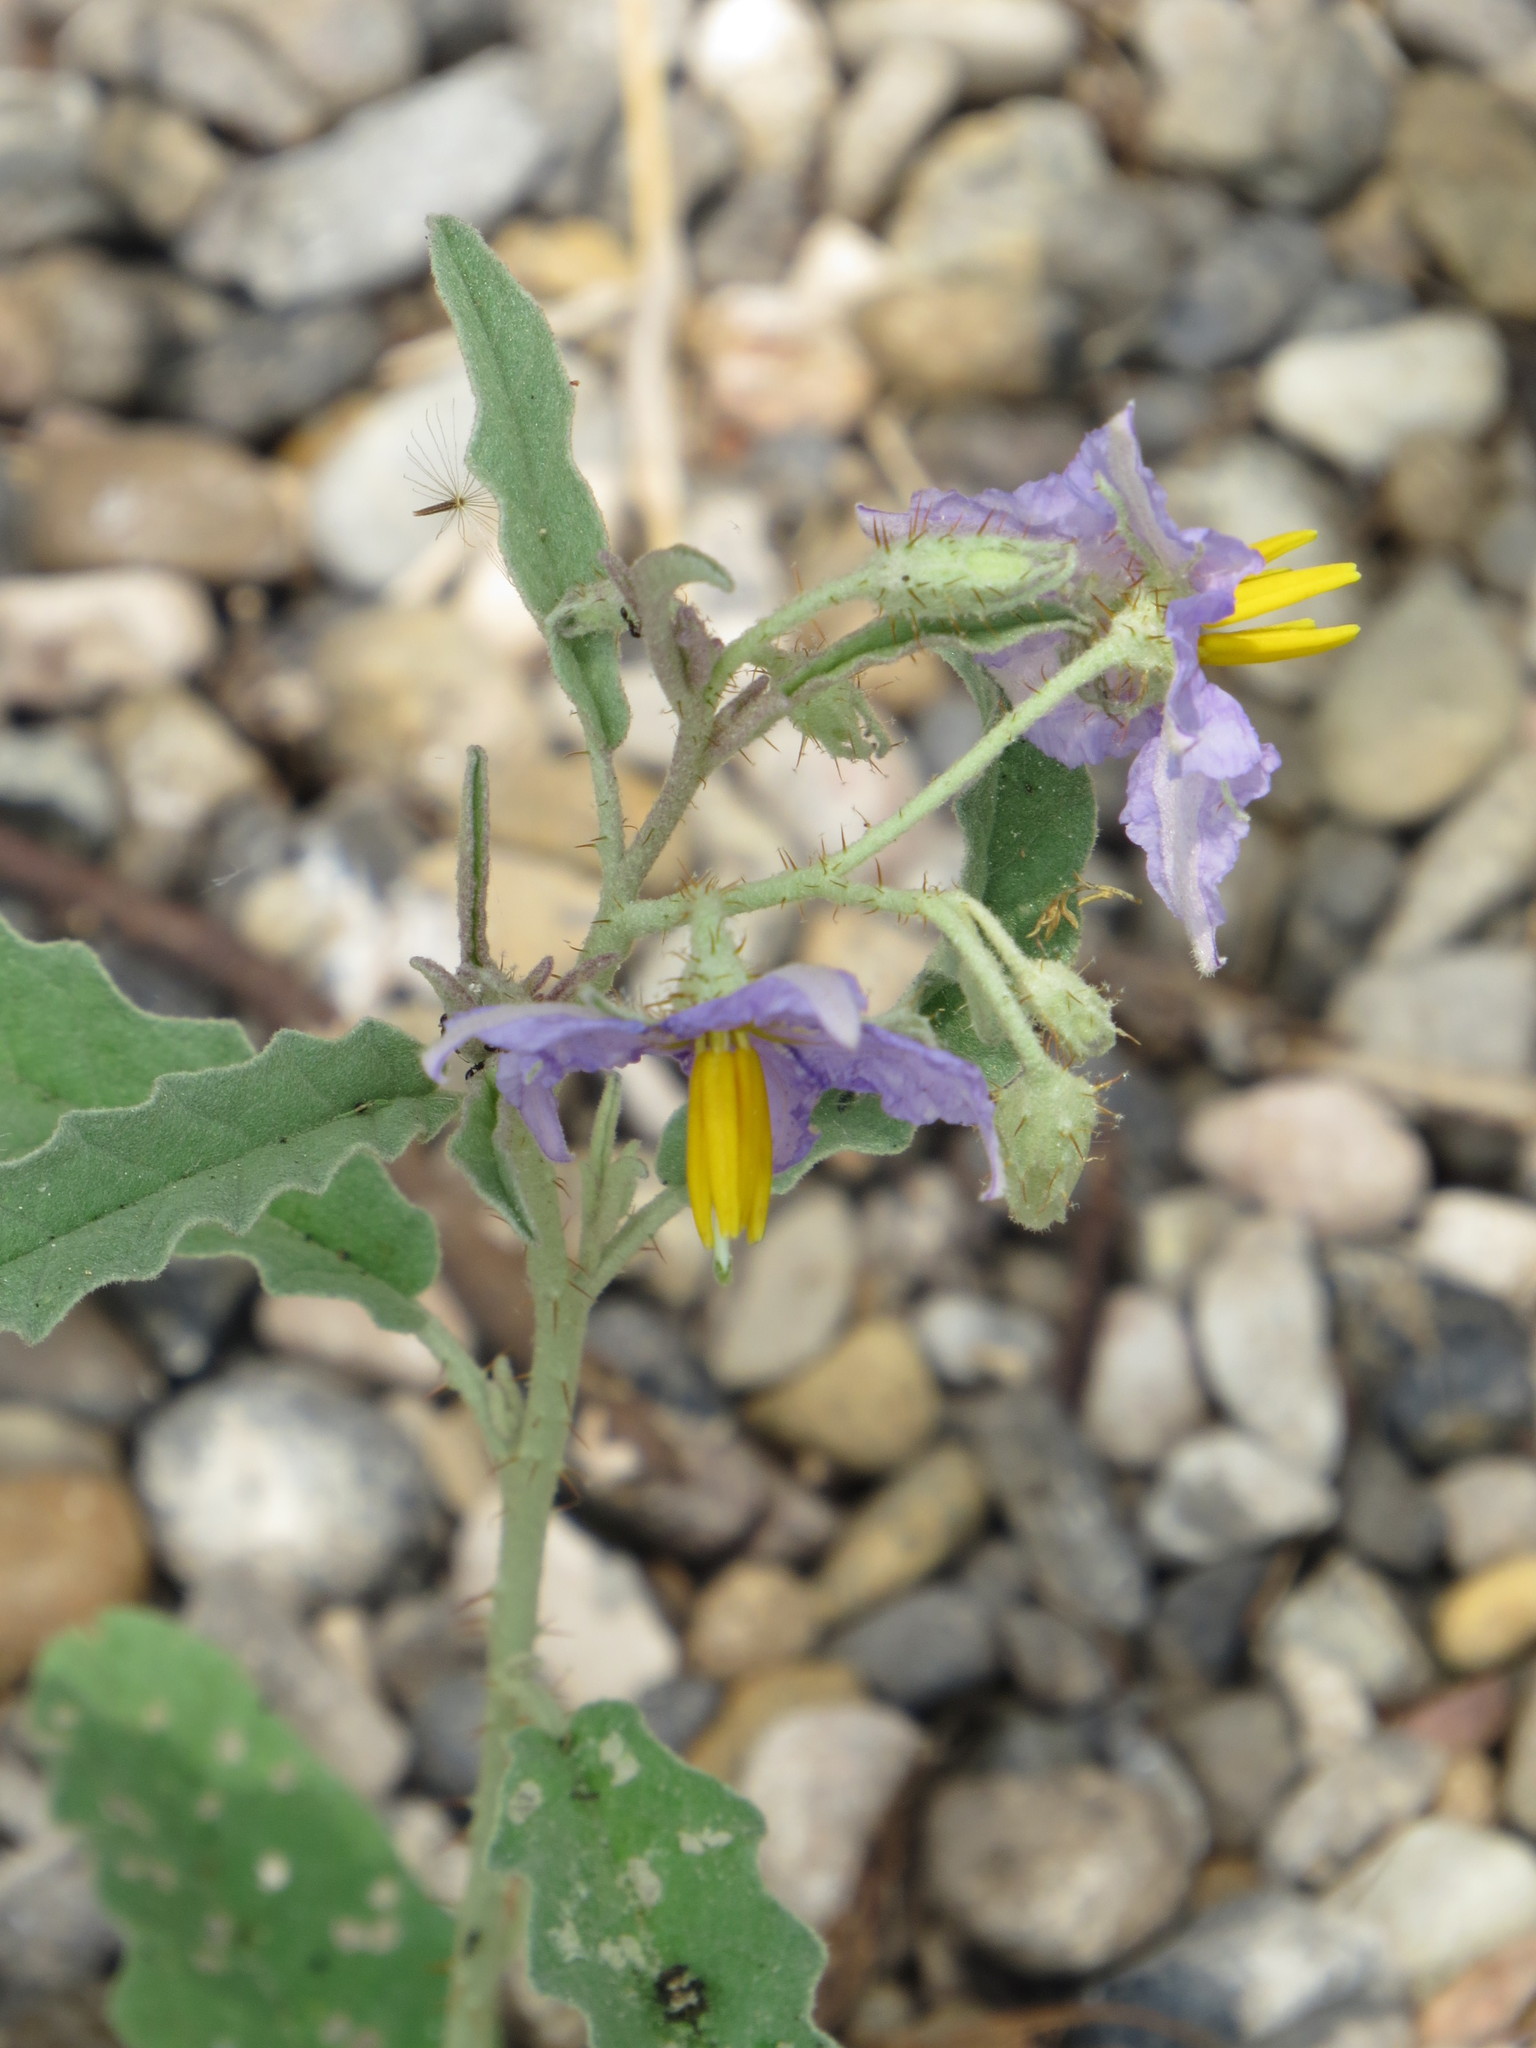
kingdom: Plantae
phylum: Tracheophyta
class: Magnoliopsida
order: Solanales
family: Solanaceae
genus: Solanum
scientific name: Solanum elaeagnifolium
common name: Silverleaf nightshade
